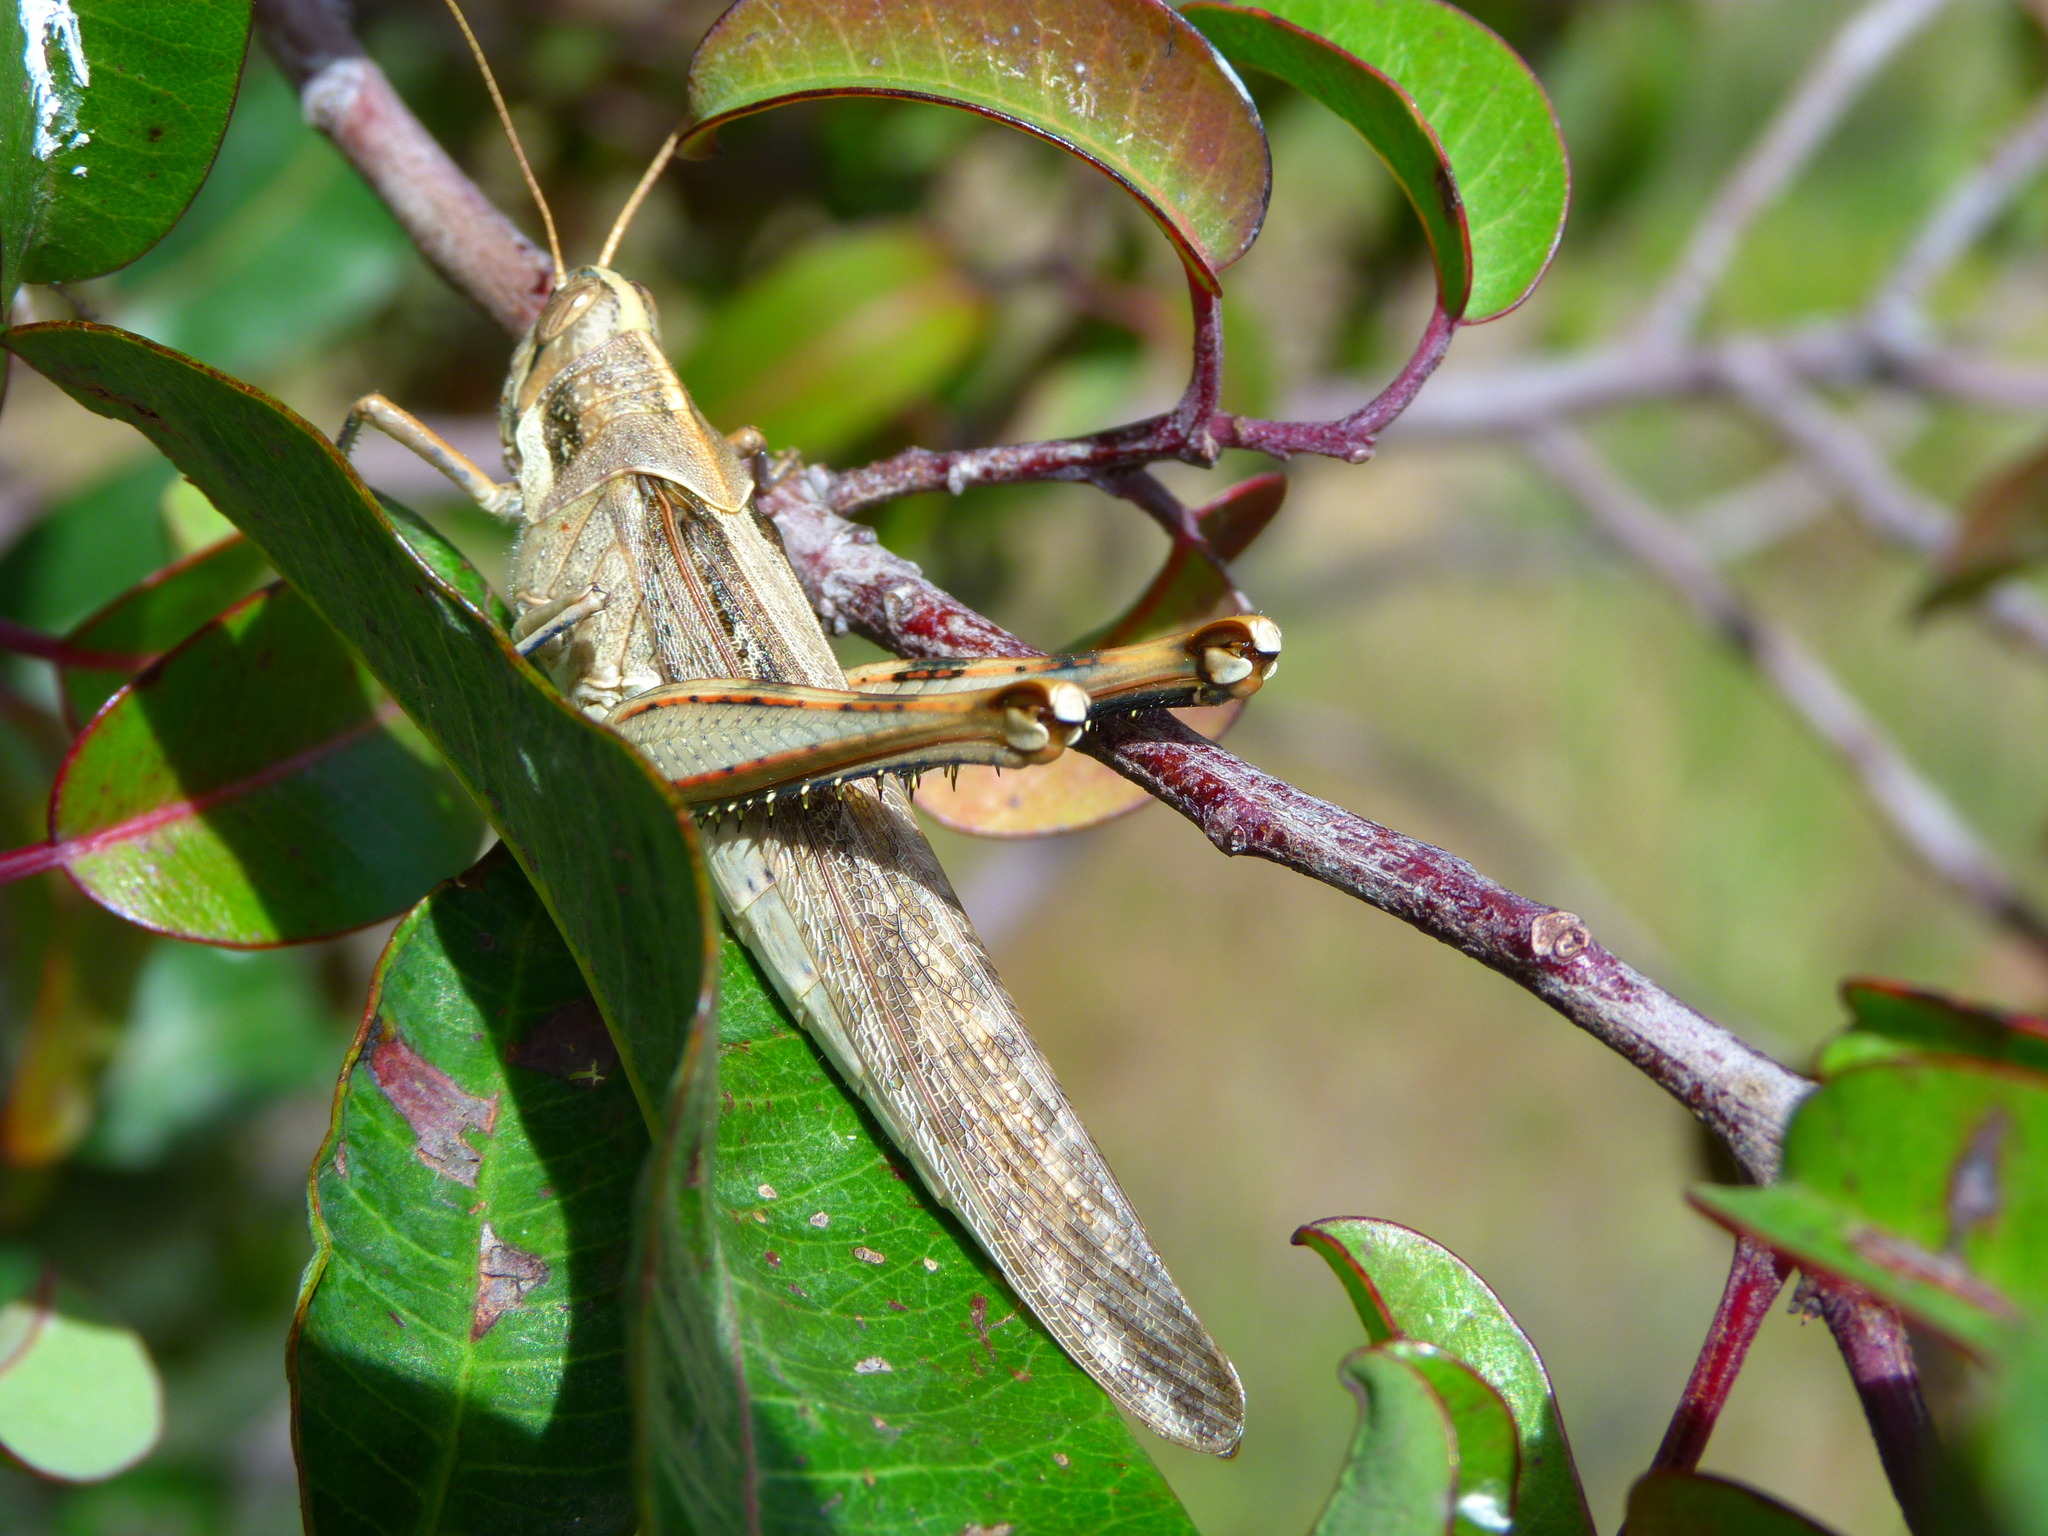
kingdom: Animalia
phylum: Arthropoda
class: Insecta
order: Orthoptera
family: Acrididae
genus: Schistocerca
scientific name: Schistocerca nitens
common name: Vagrant grasshopper
